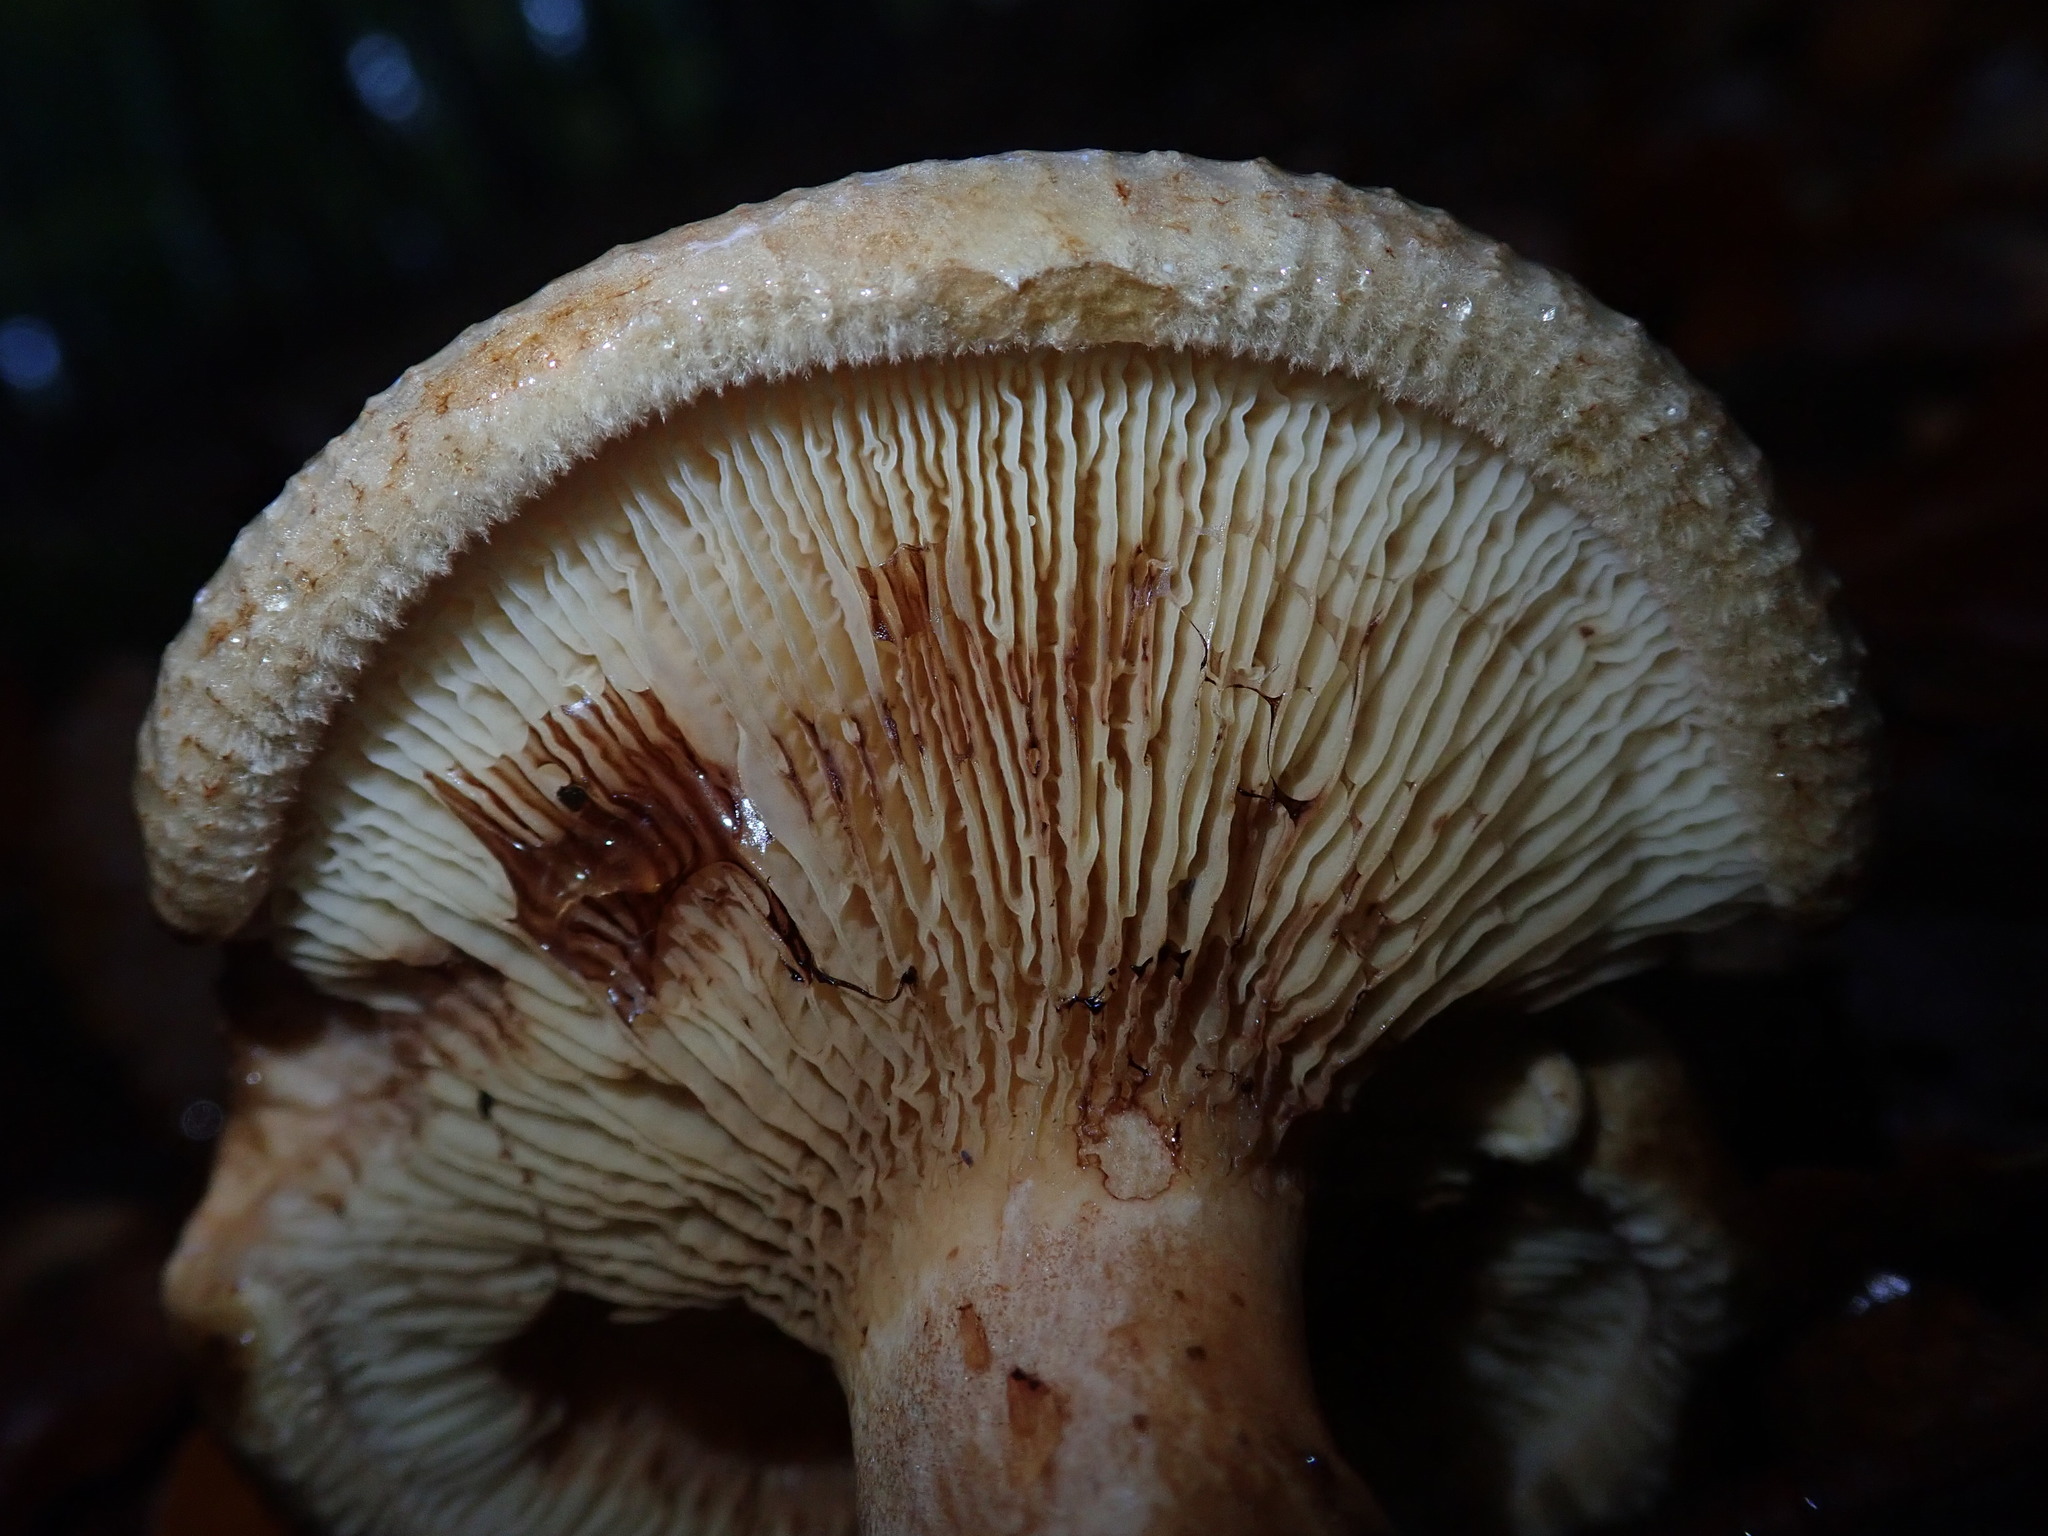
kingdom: Fungi
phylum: Basidiomycota
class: Agaricomycetes
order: Boletales
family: Paxillaceae
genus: Paxillus
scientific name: Paxillus involutus
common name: Brown roll rim
